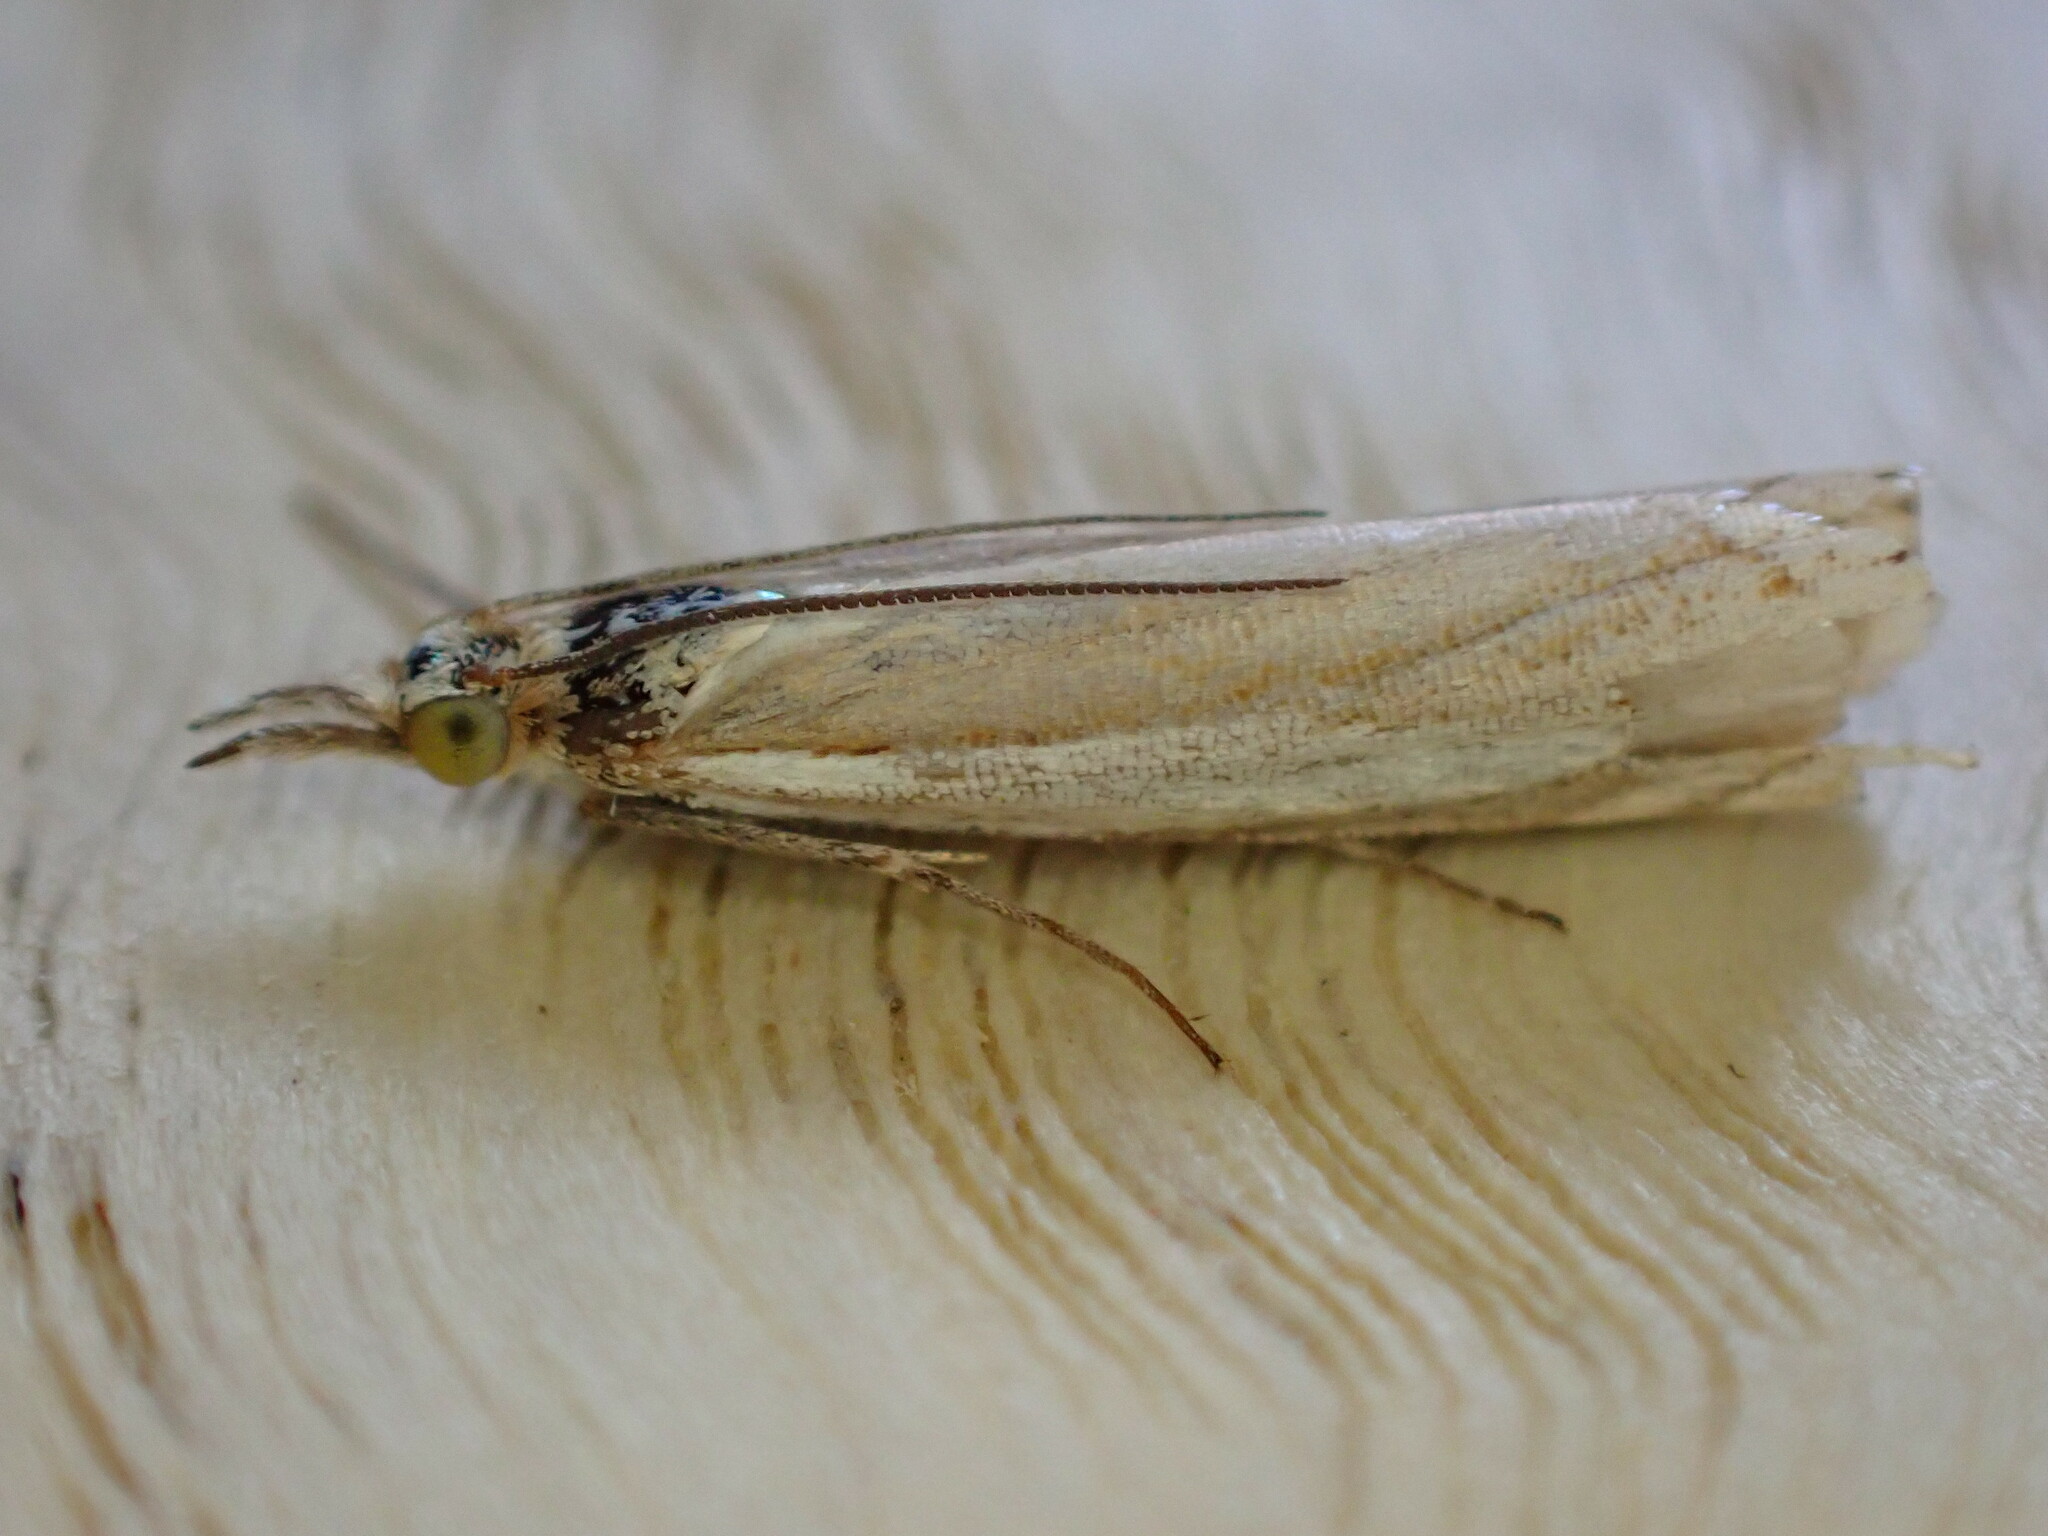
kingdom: Animalia
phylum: Arthropoda
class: Insecta
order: Lepidoptera
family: Crambidae
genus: Crambus
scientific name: Crambus pascuella
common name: Inlaid grass-veneer
